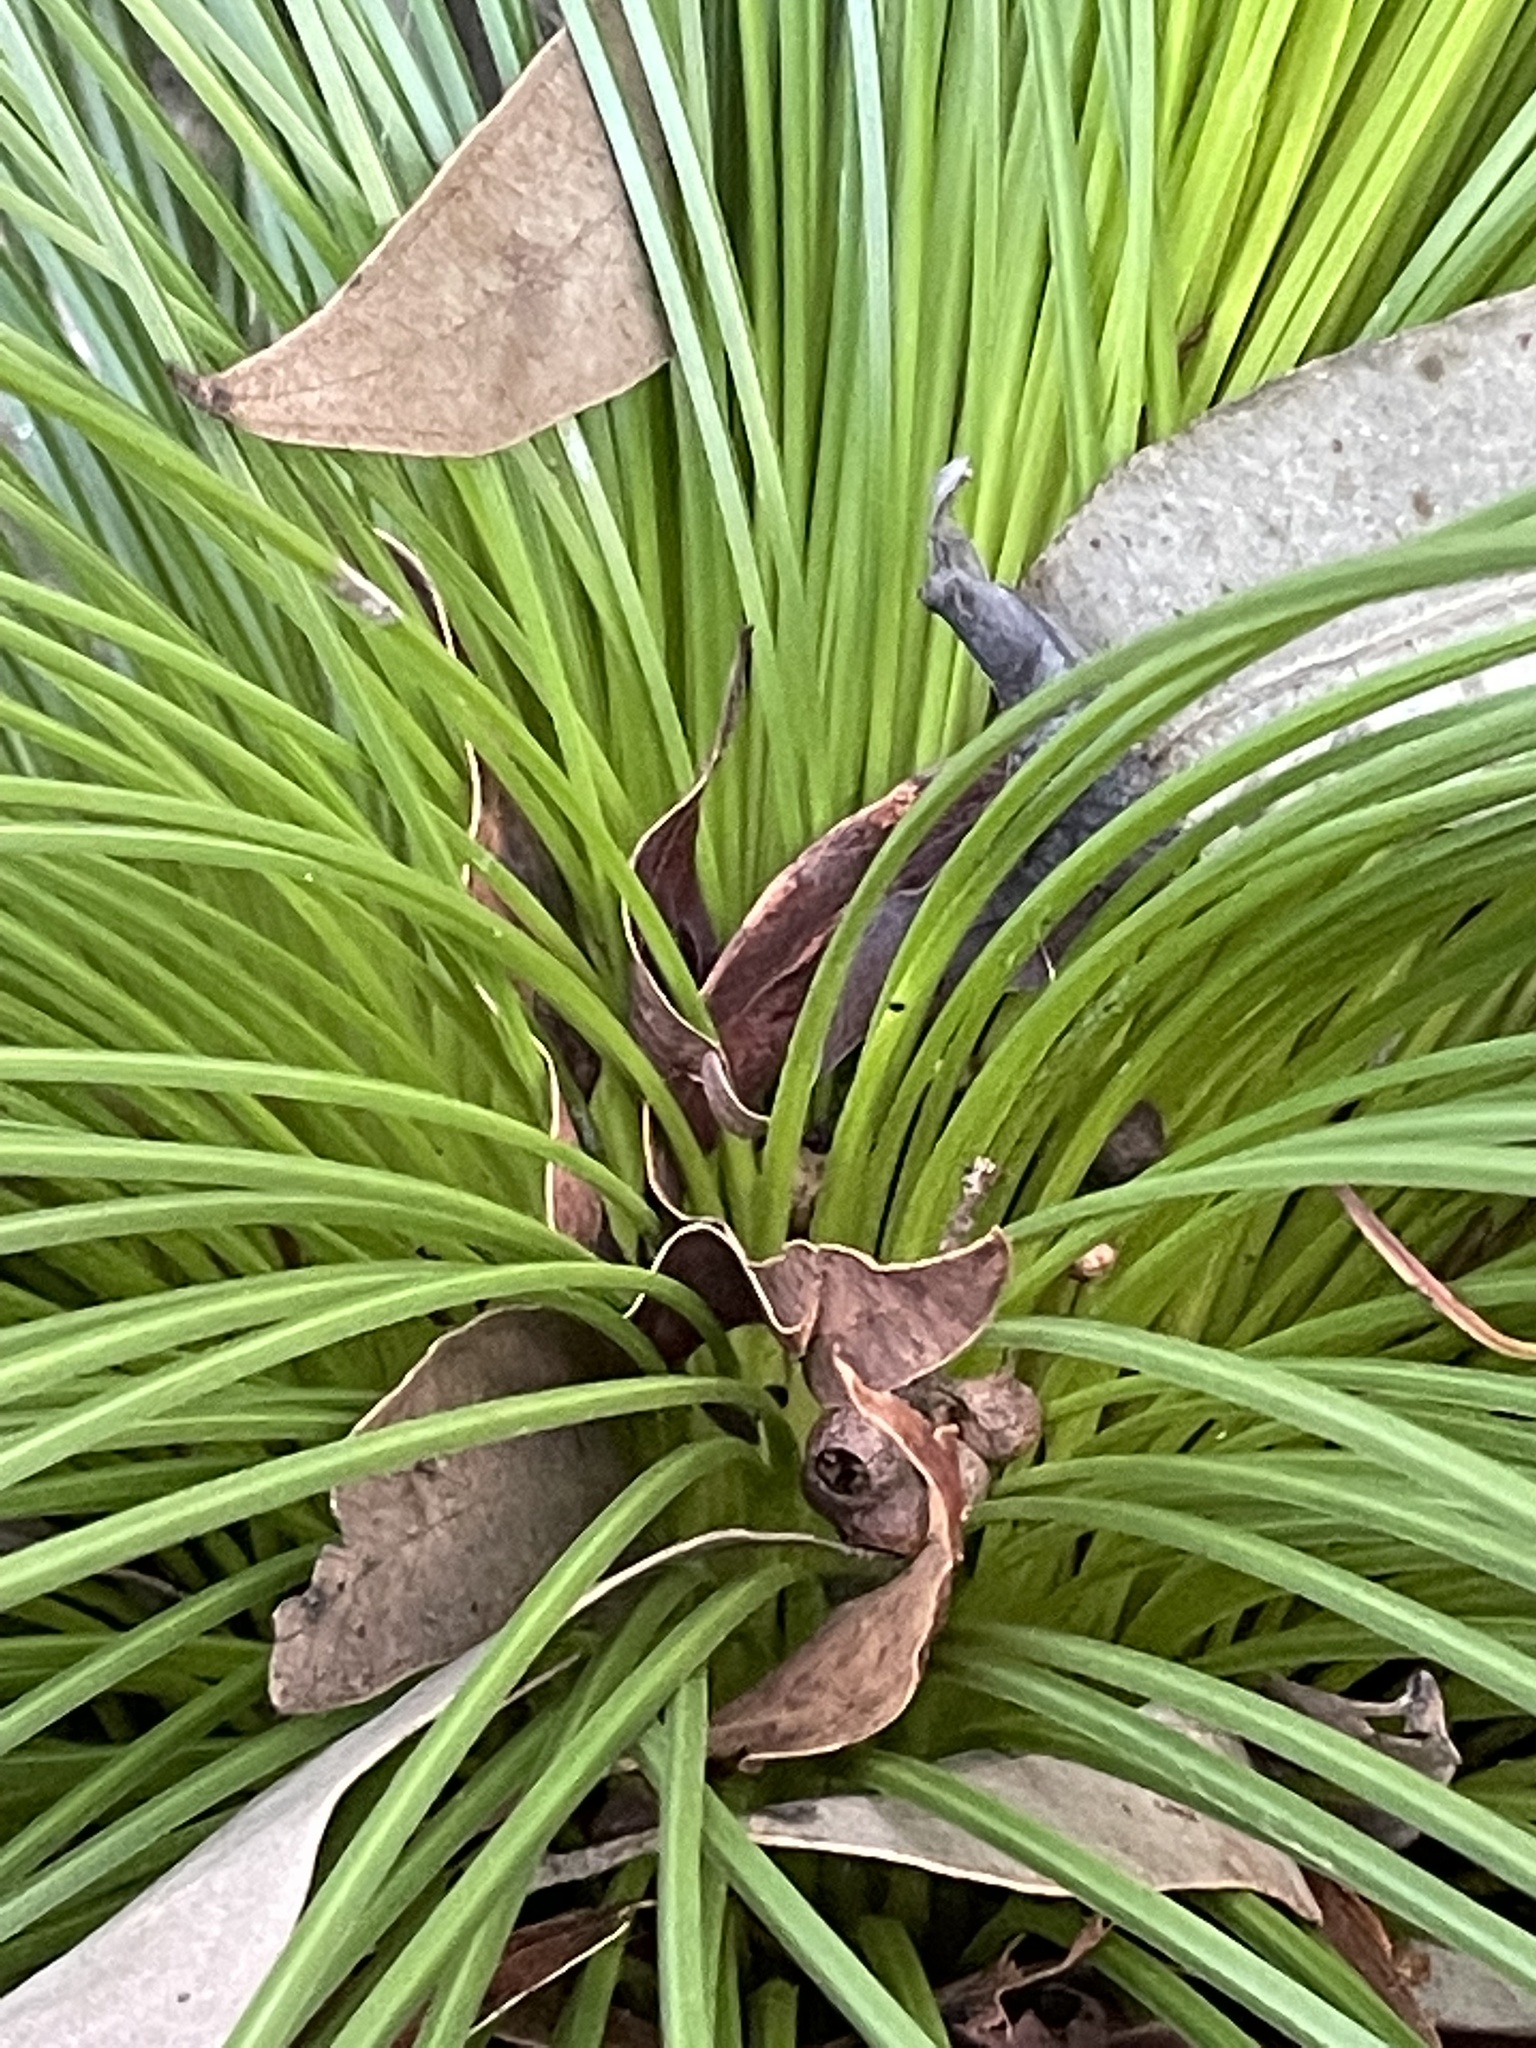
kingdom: Plantae
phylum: Tracheophyta
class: Liliopsida
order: Asparagales
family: Asphodelaceae
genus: Xanthorrhoea
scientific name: Xanthorrhoea johnsonii
